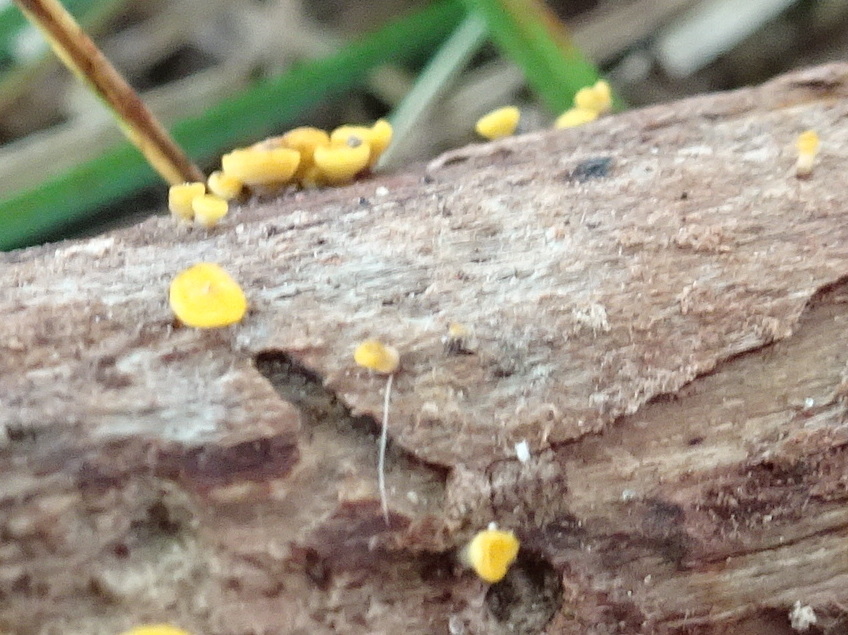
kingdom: Fungi
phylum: Ascomycota
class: Leotiomycetes
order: Helotiales
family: Pezizellaceae
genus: Calycina
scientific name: Calycina citrina
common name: Yellow fairy cups
